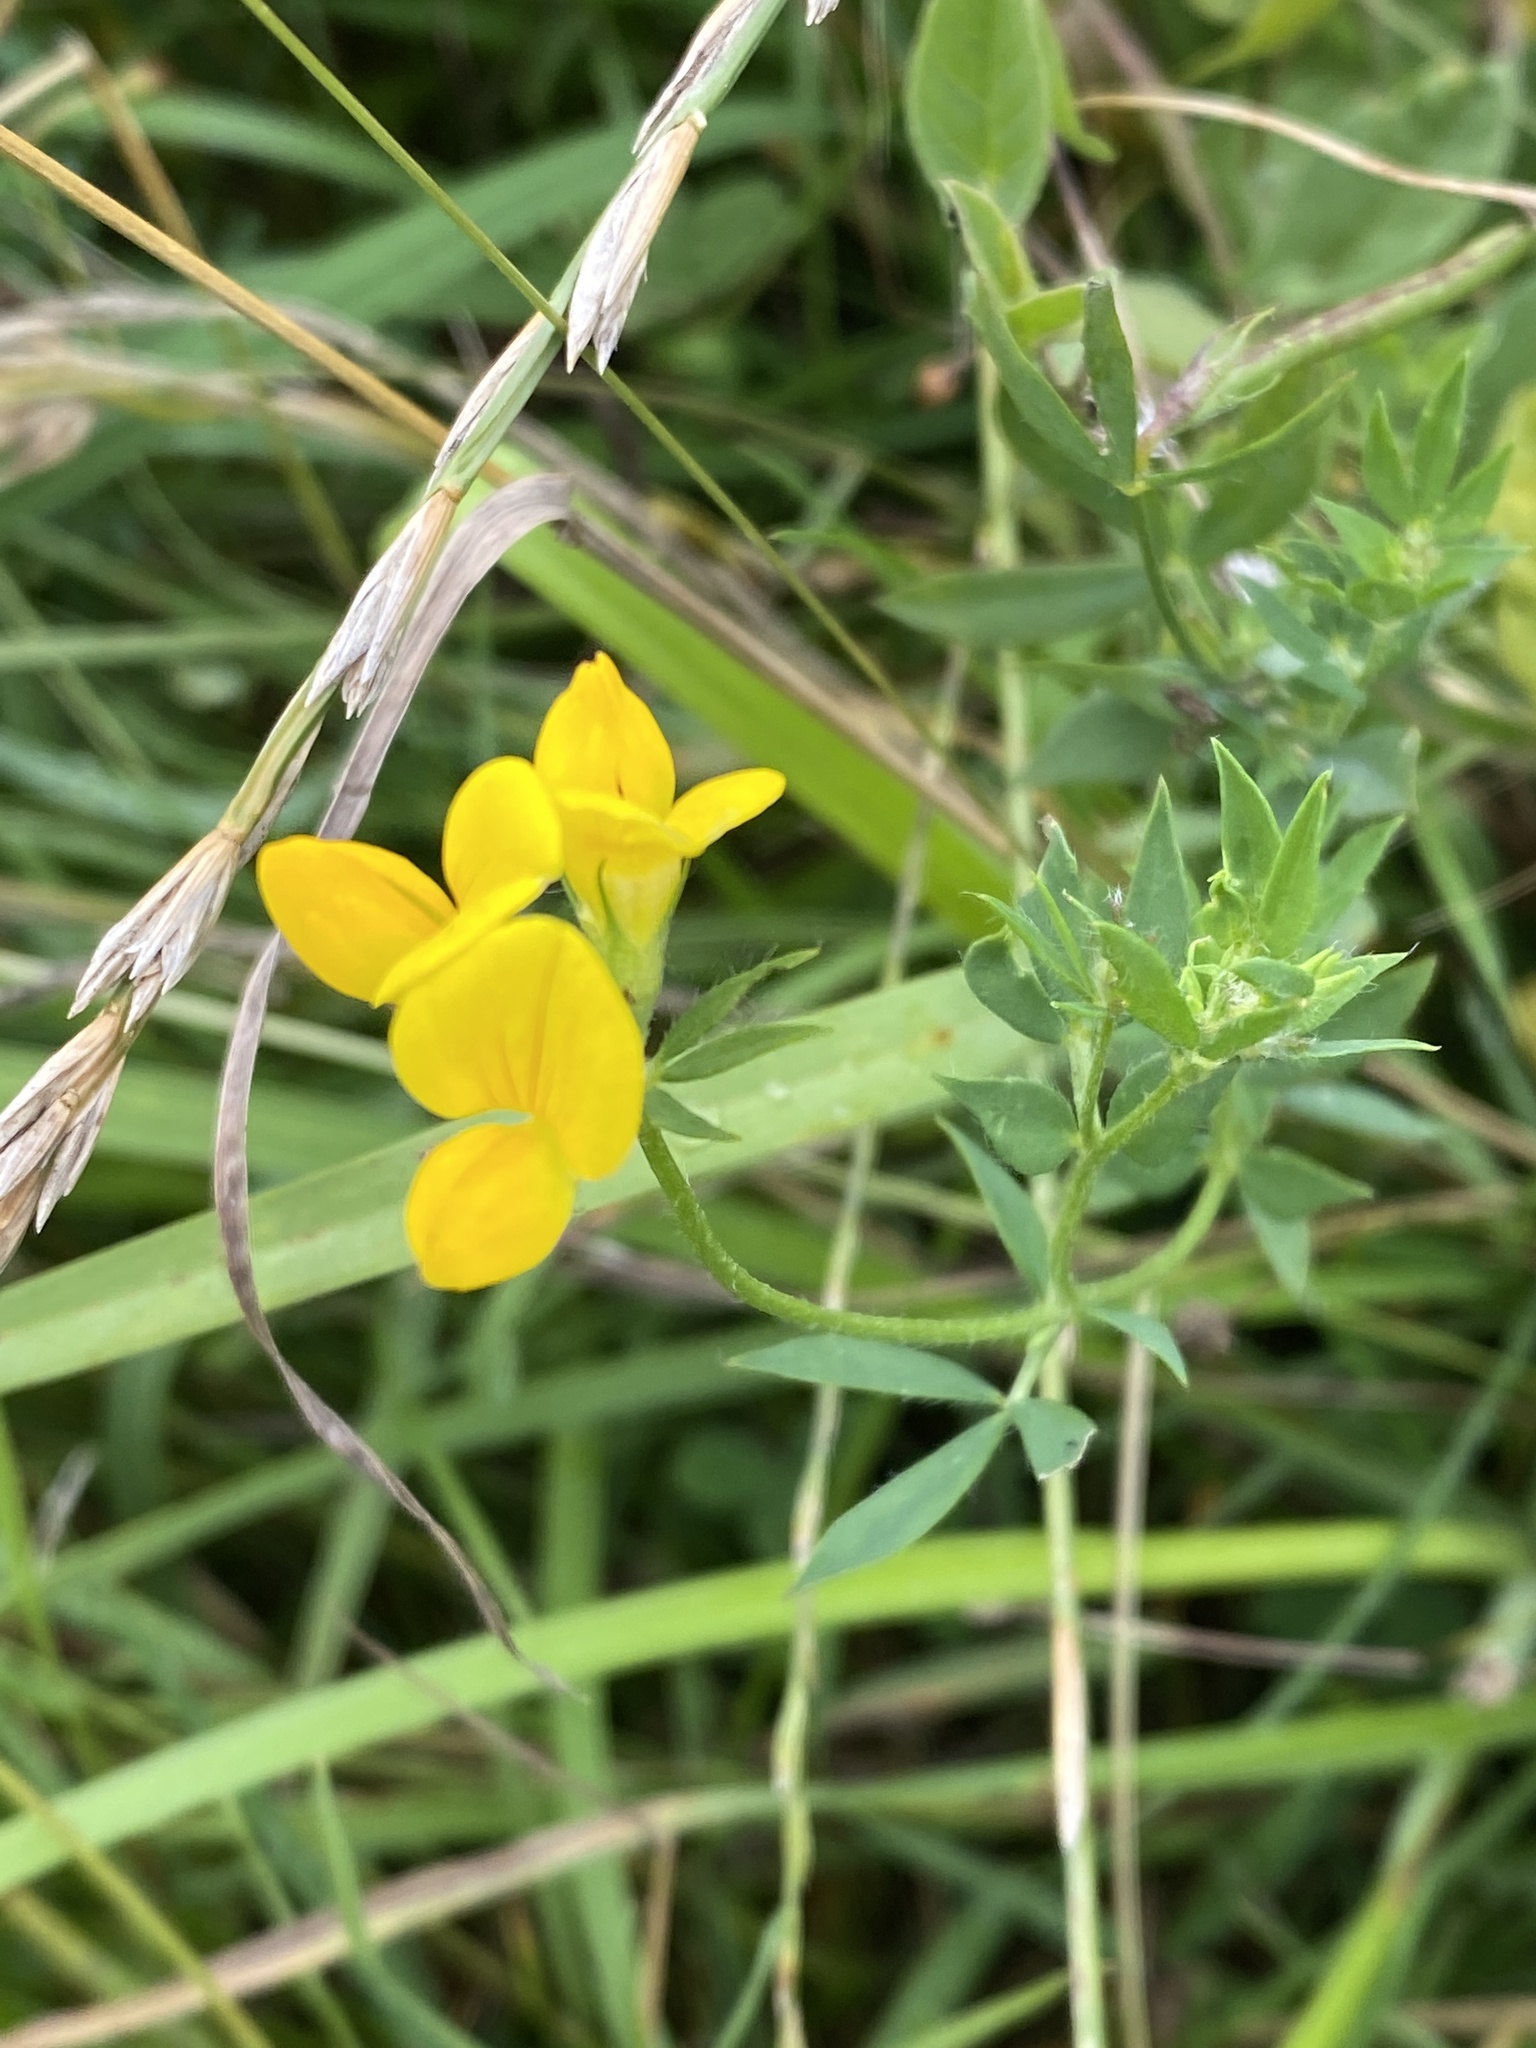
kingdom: Plantae
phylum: Tracheophyta
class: Magnoliopsida
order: Fabales
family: Fabaceae
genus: Lotus
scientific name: Lotus corniculatus
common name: Common bird's-foot-trefoil
